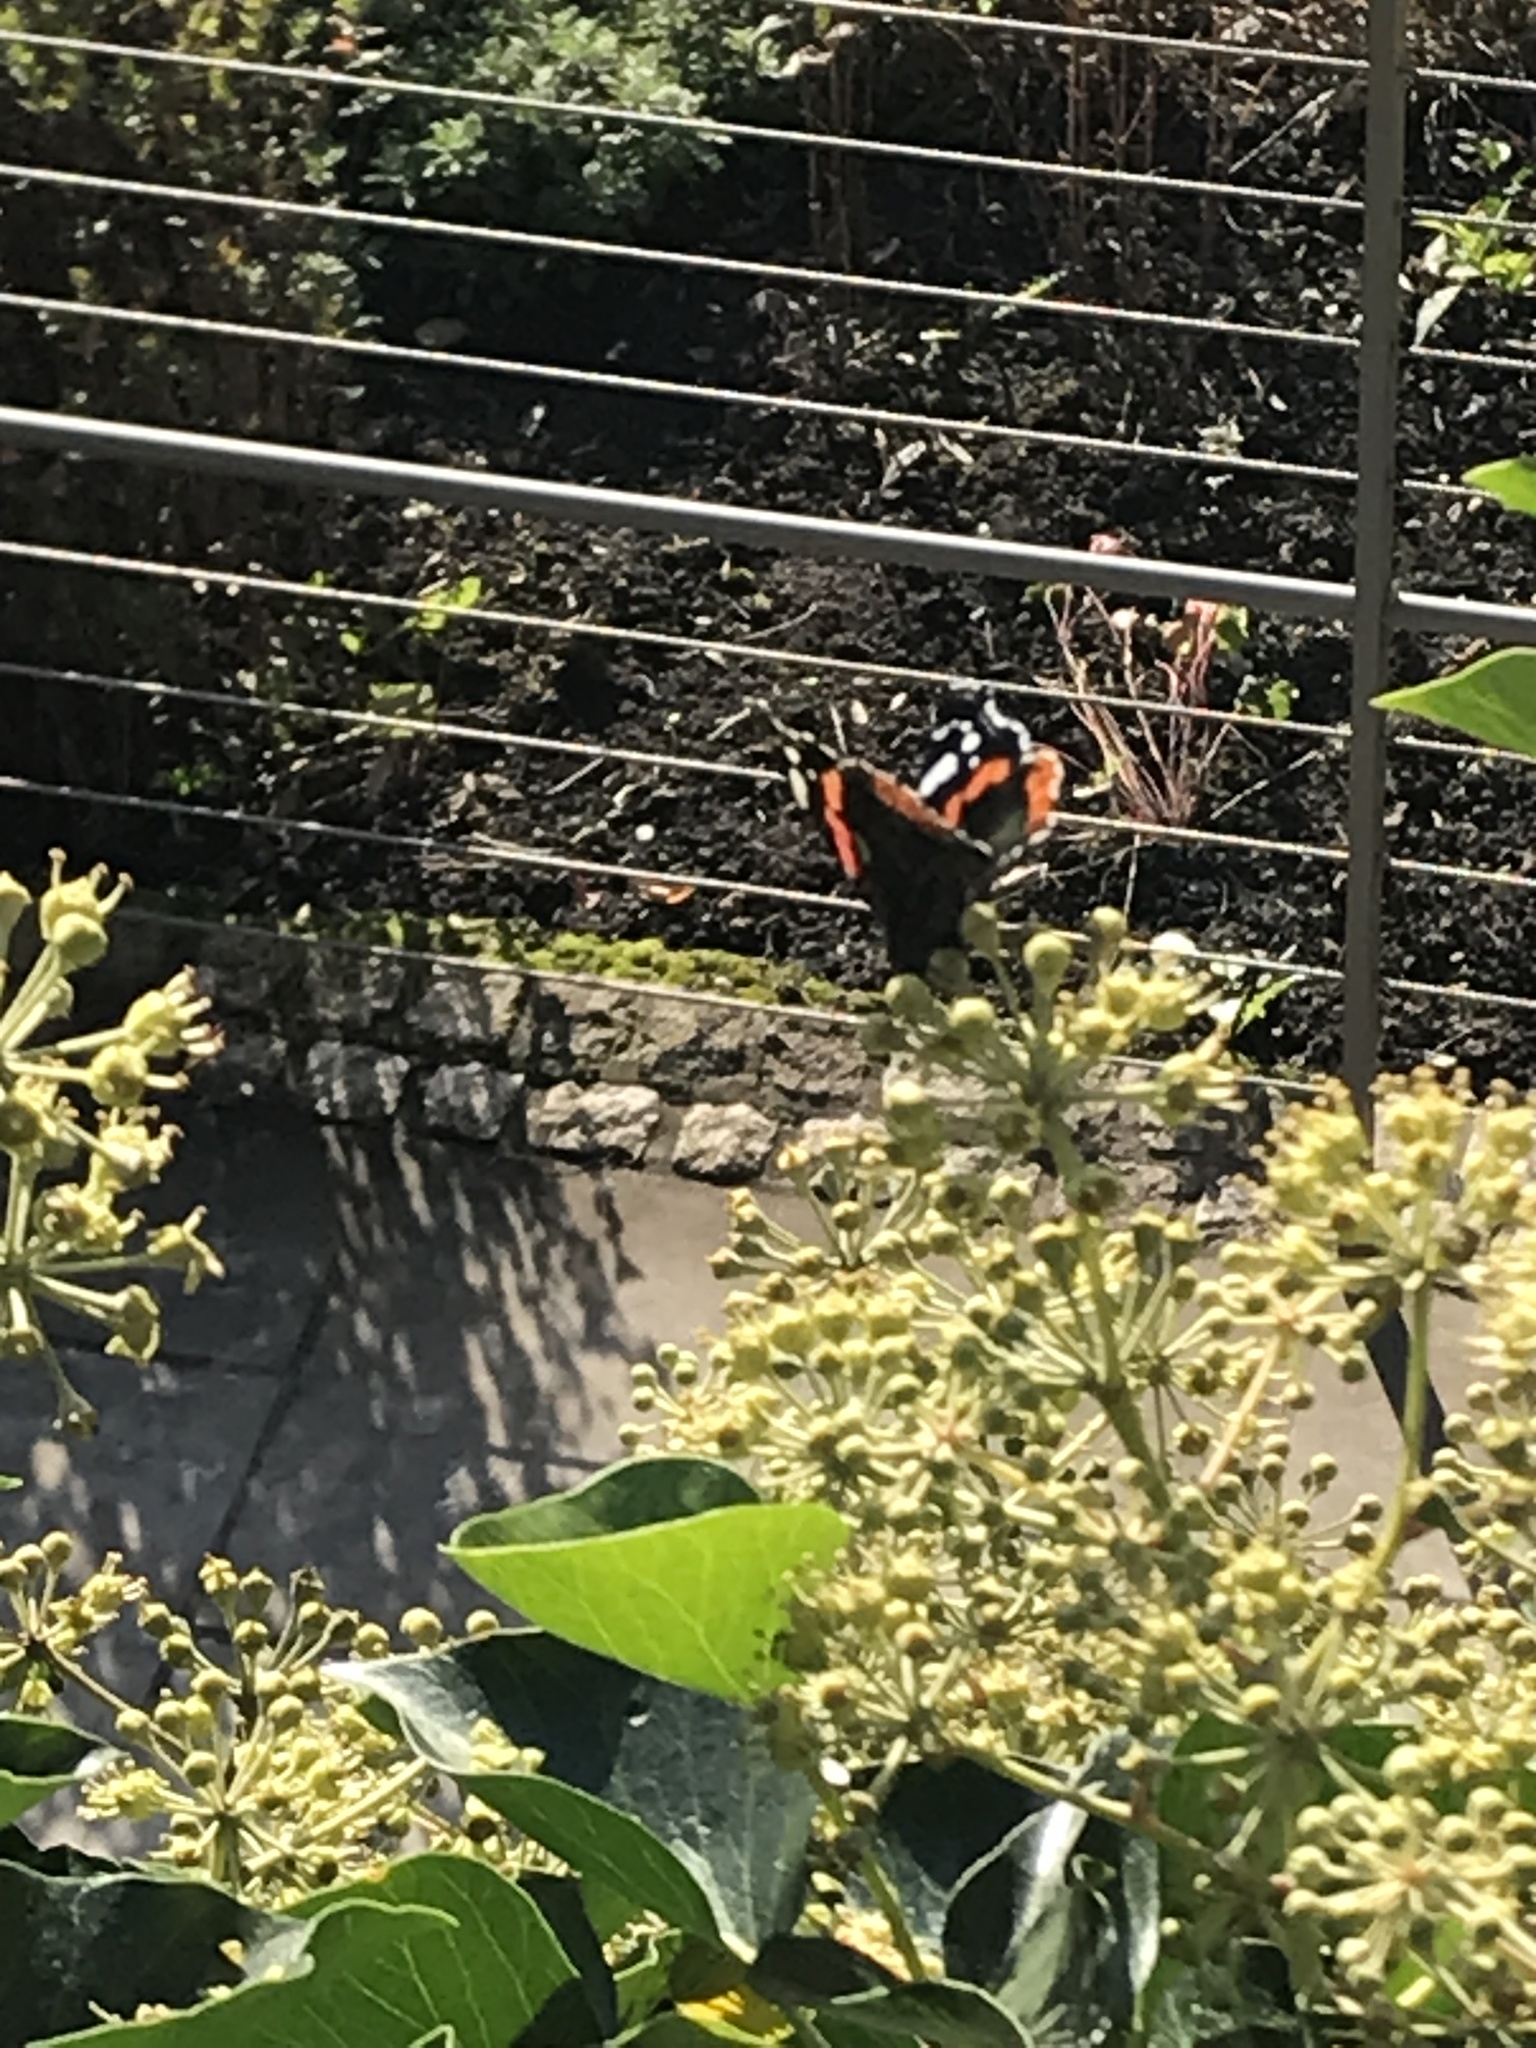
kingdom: Animalia
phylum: Arthropoda
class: Insecta
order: Lepidoptera
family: Nymphalidae
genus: Vanessa
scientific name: Vanessa atalanta
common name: Red admiral
